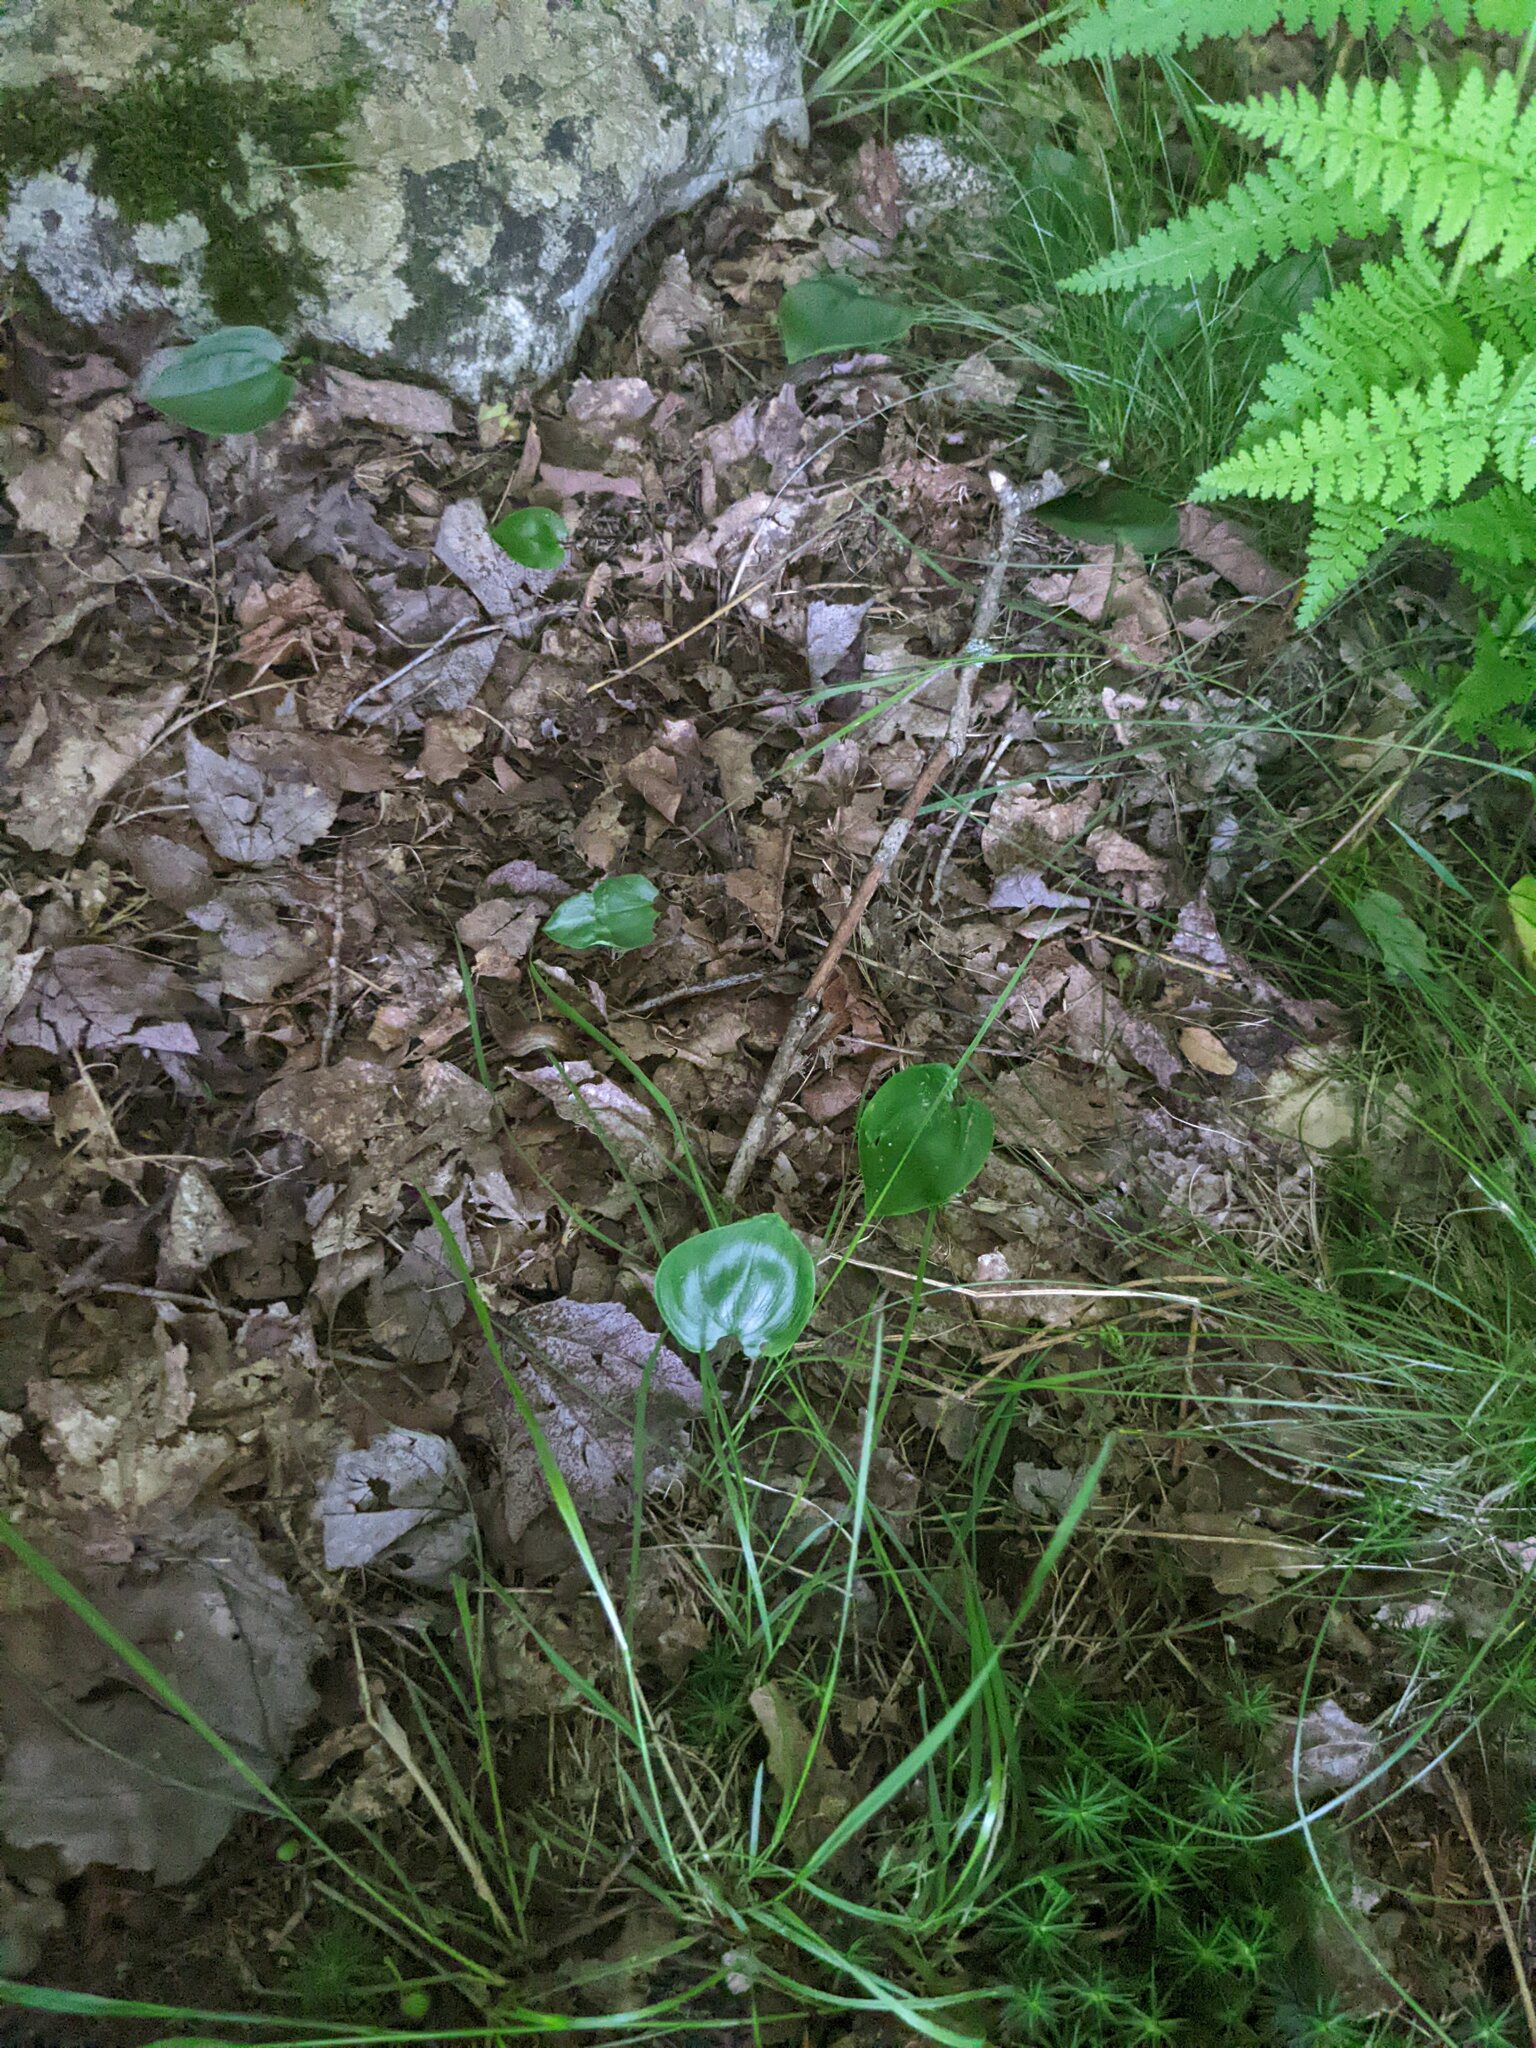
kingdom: Plantae
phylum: Tracheophyta
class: Liliopsida
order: Asparagales
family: Asparagaceae
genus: Maianthemum
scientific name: Maianthemum canadense
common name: False lily-of-the-valley
